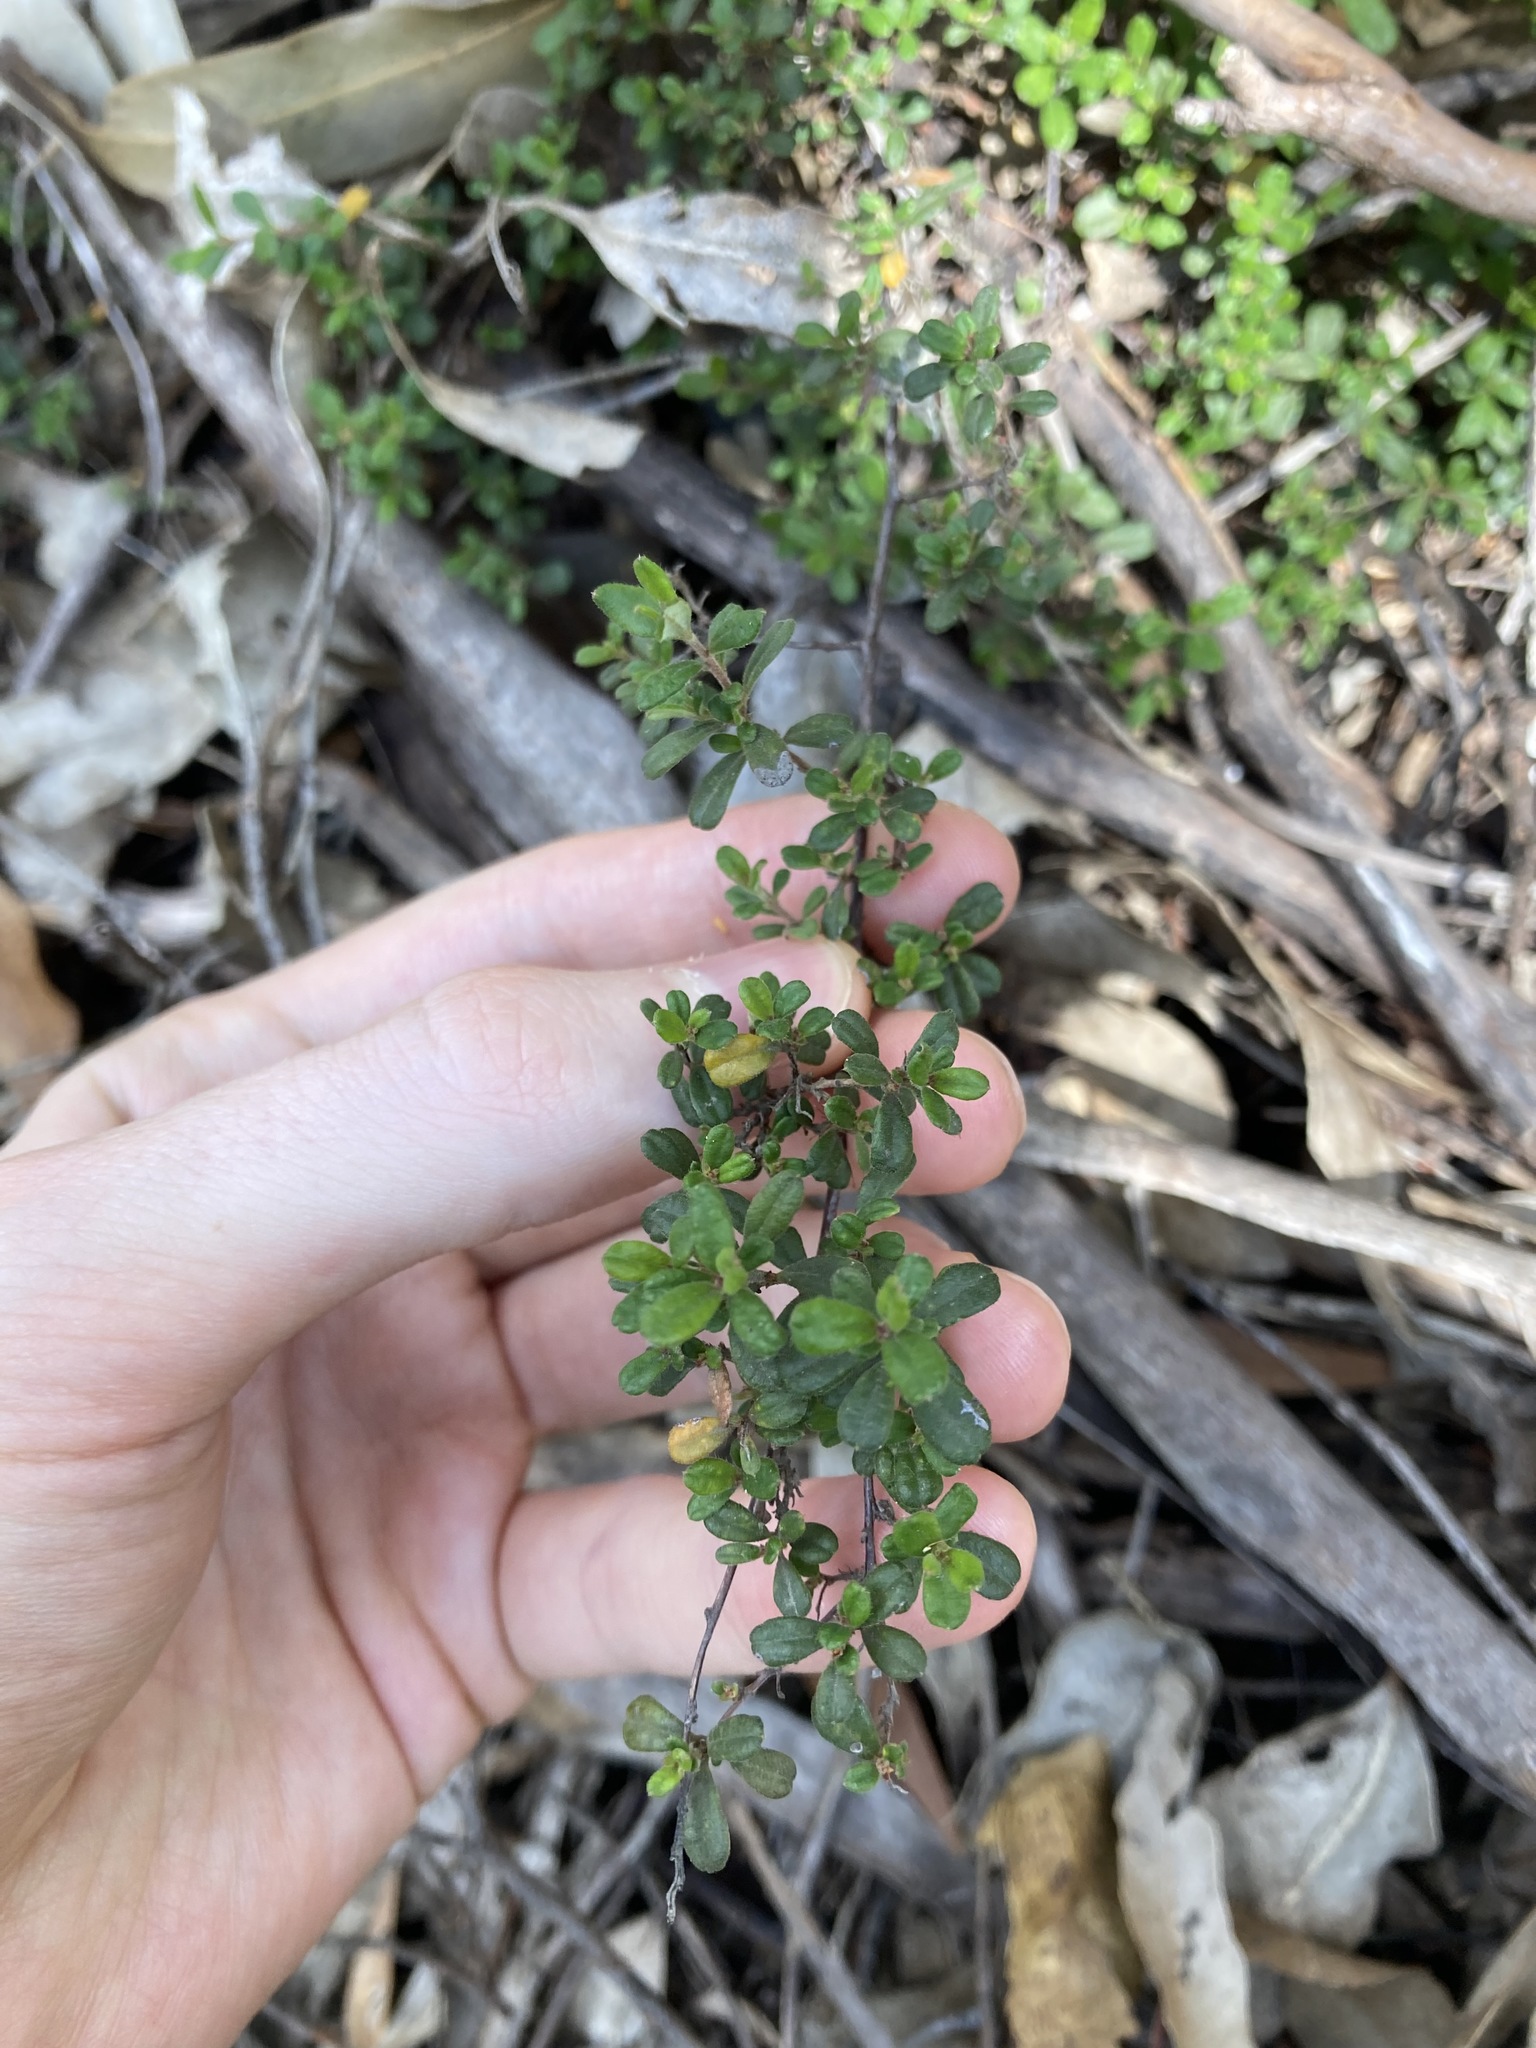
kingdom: Plantae
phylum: Tracheophyta
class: Magnoliopsida
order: Dilleniales
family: Dilleniaceae
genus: Hibbertia
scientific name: Hibbertia aspera
